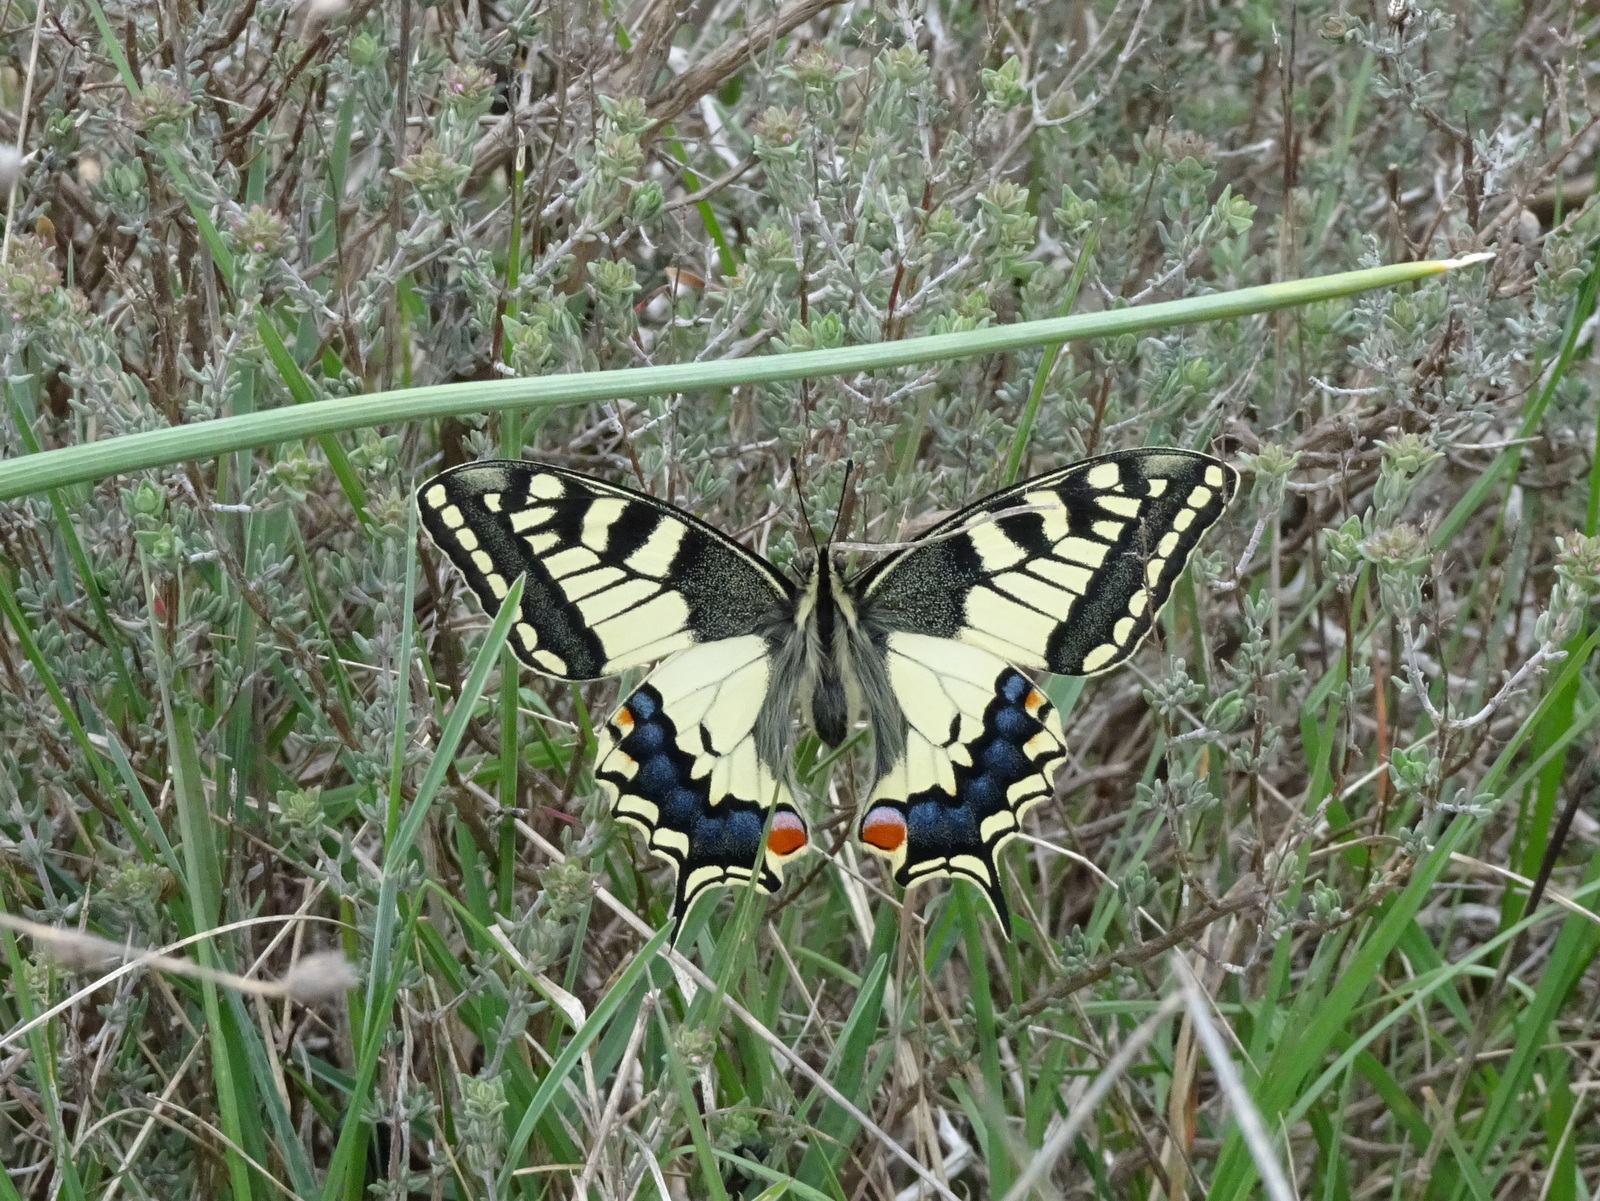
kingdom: Animalia
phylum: Arthropoda
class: Insecta
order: Lepidoptera
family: Papilionidae
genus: Papilio
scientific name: Papilio machaon
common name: Swallowtail
